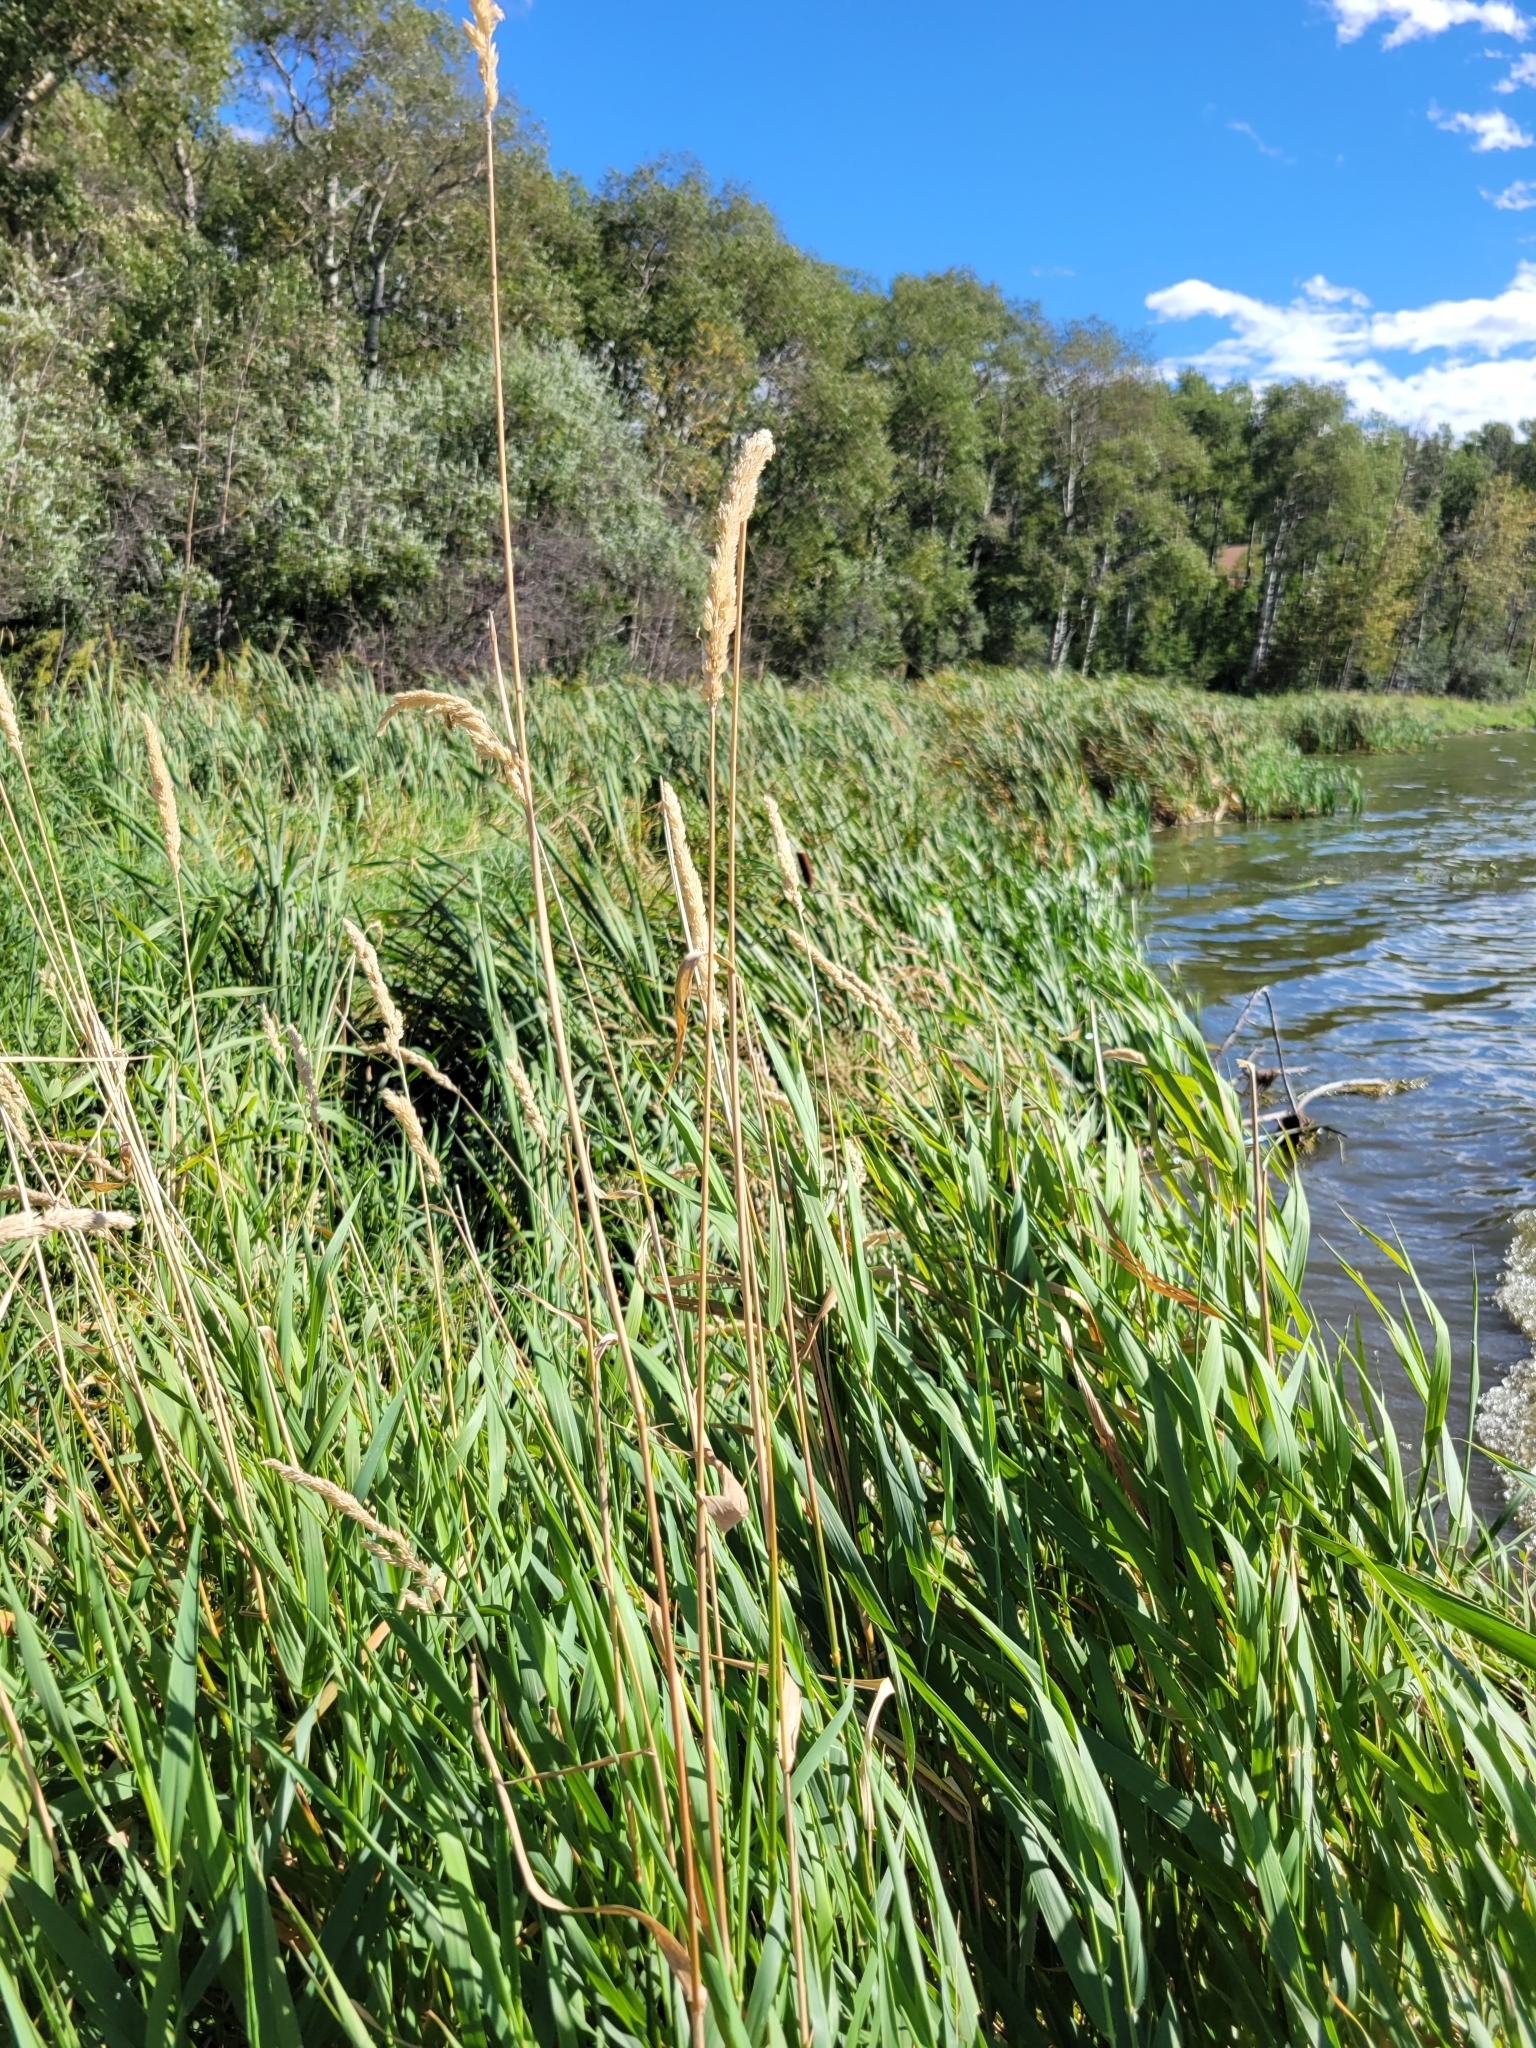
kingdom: Plantae
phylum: Tracheophyta
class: Liliopsida
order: Poales
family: Poaceae
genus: Phalaris
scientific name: Phalaris arundinacea
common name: Reed canary-grass
